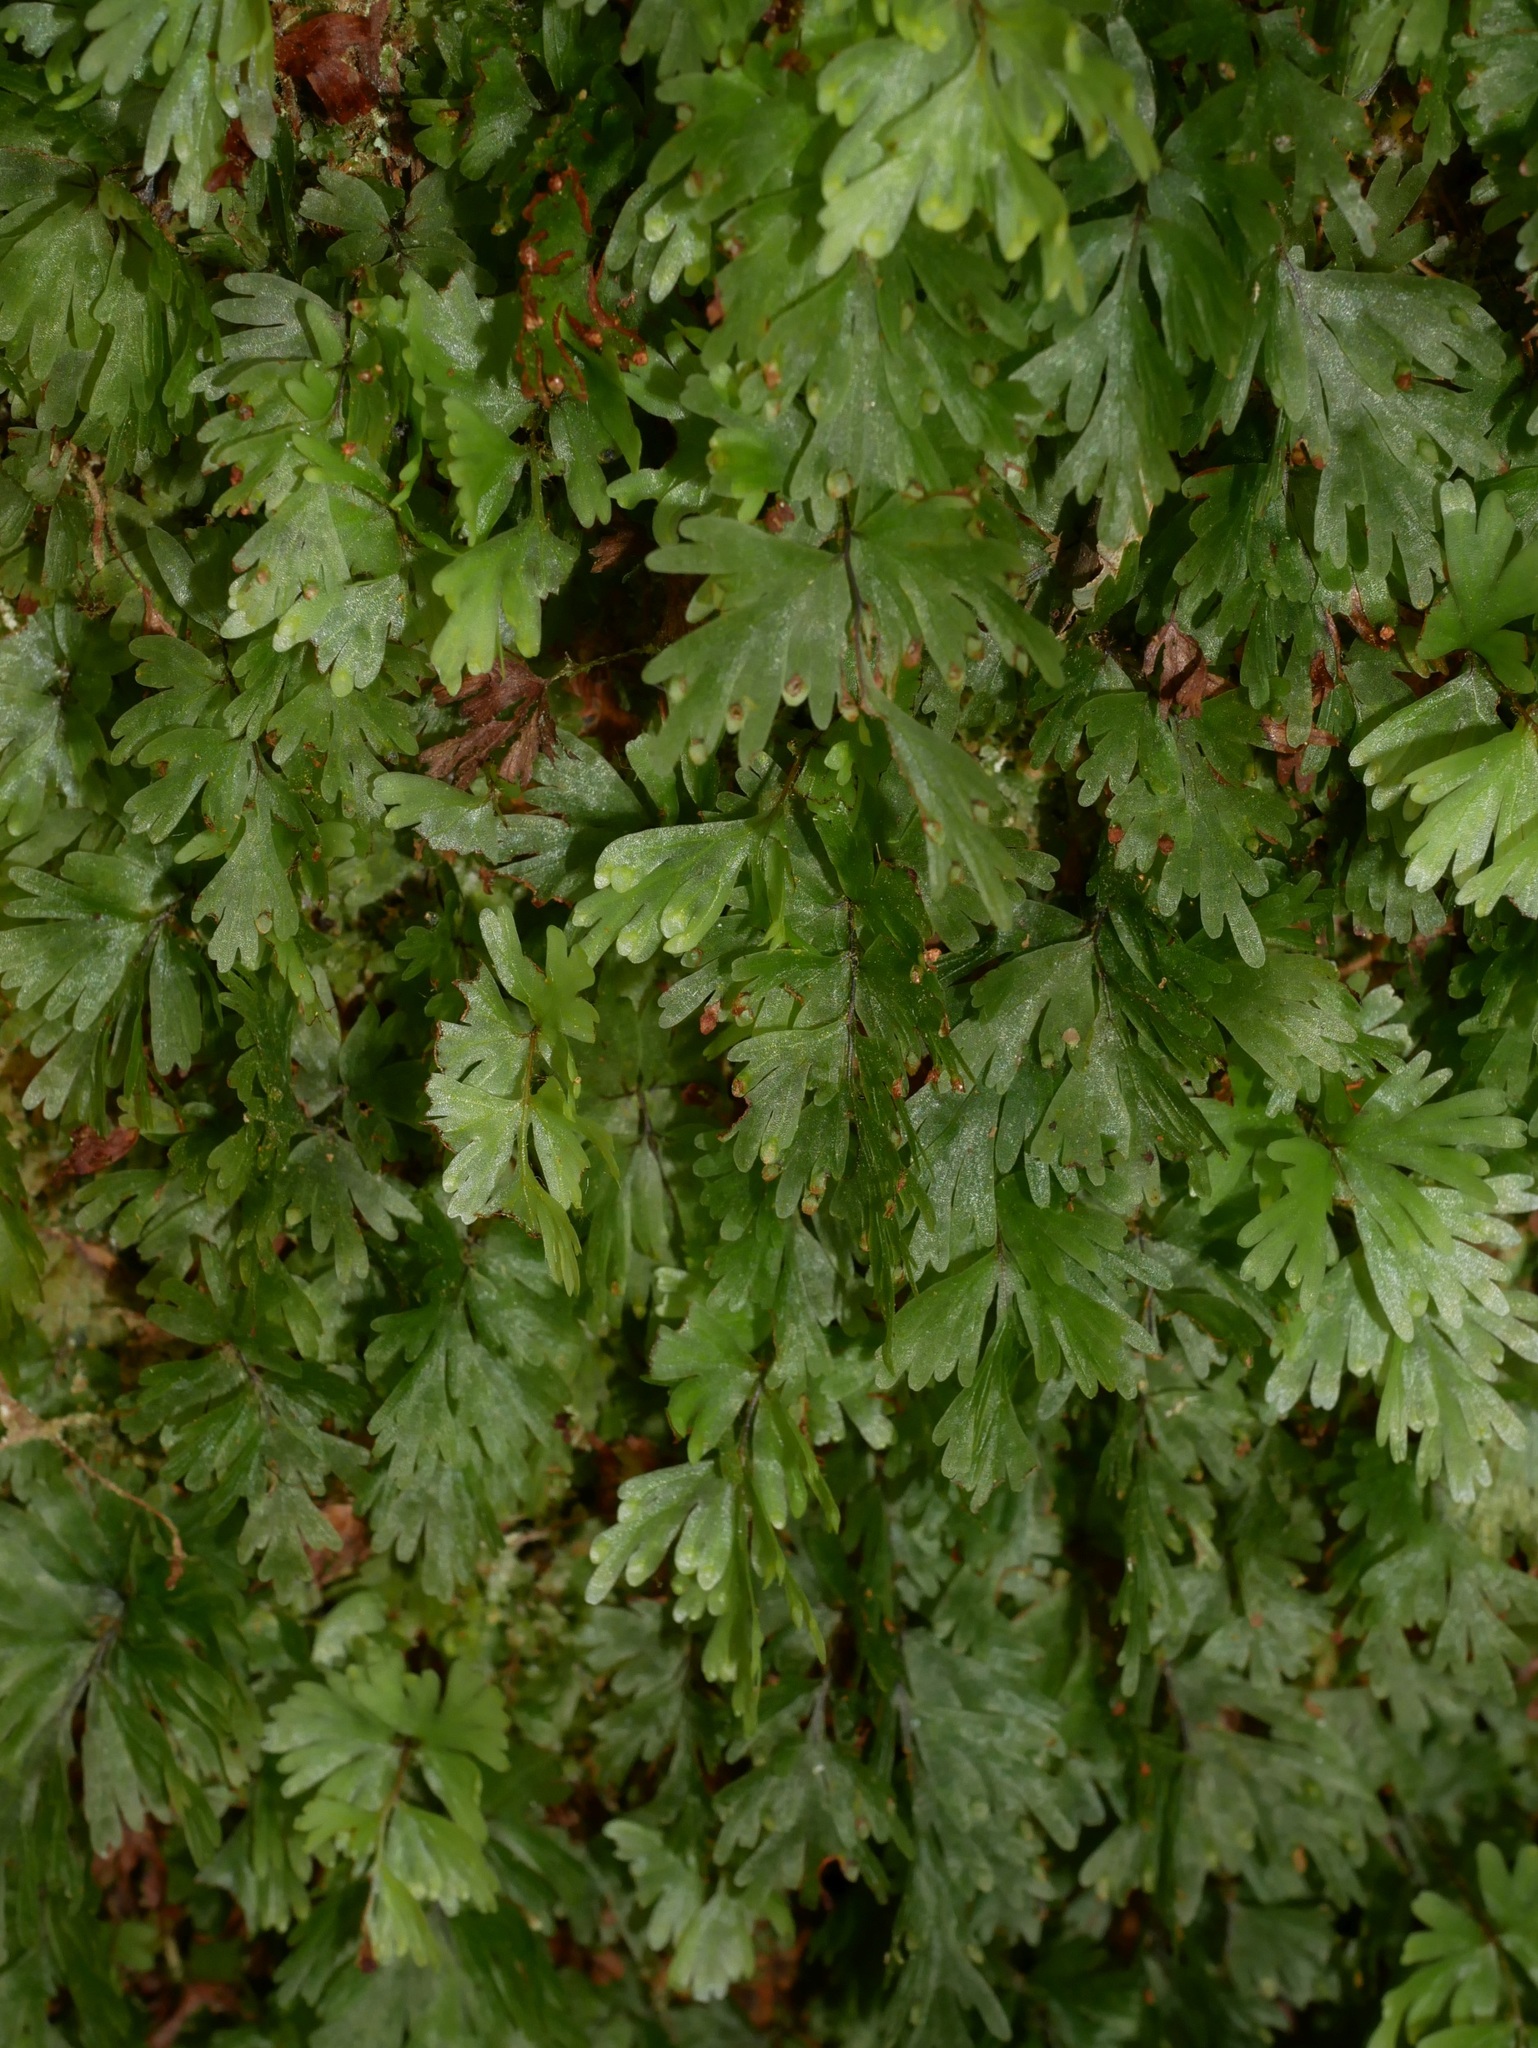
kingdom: Plantae
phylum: Tracheophyta
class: Polypodiopsida
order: Hymenophyllales
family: Hymenophyllaceae
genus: Hymenophyllum
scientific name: Hymenophyllum flabellatum
